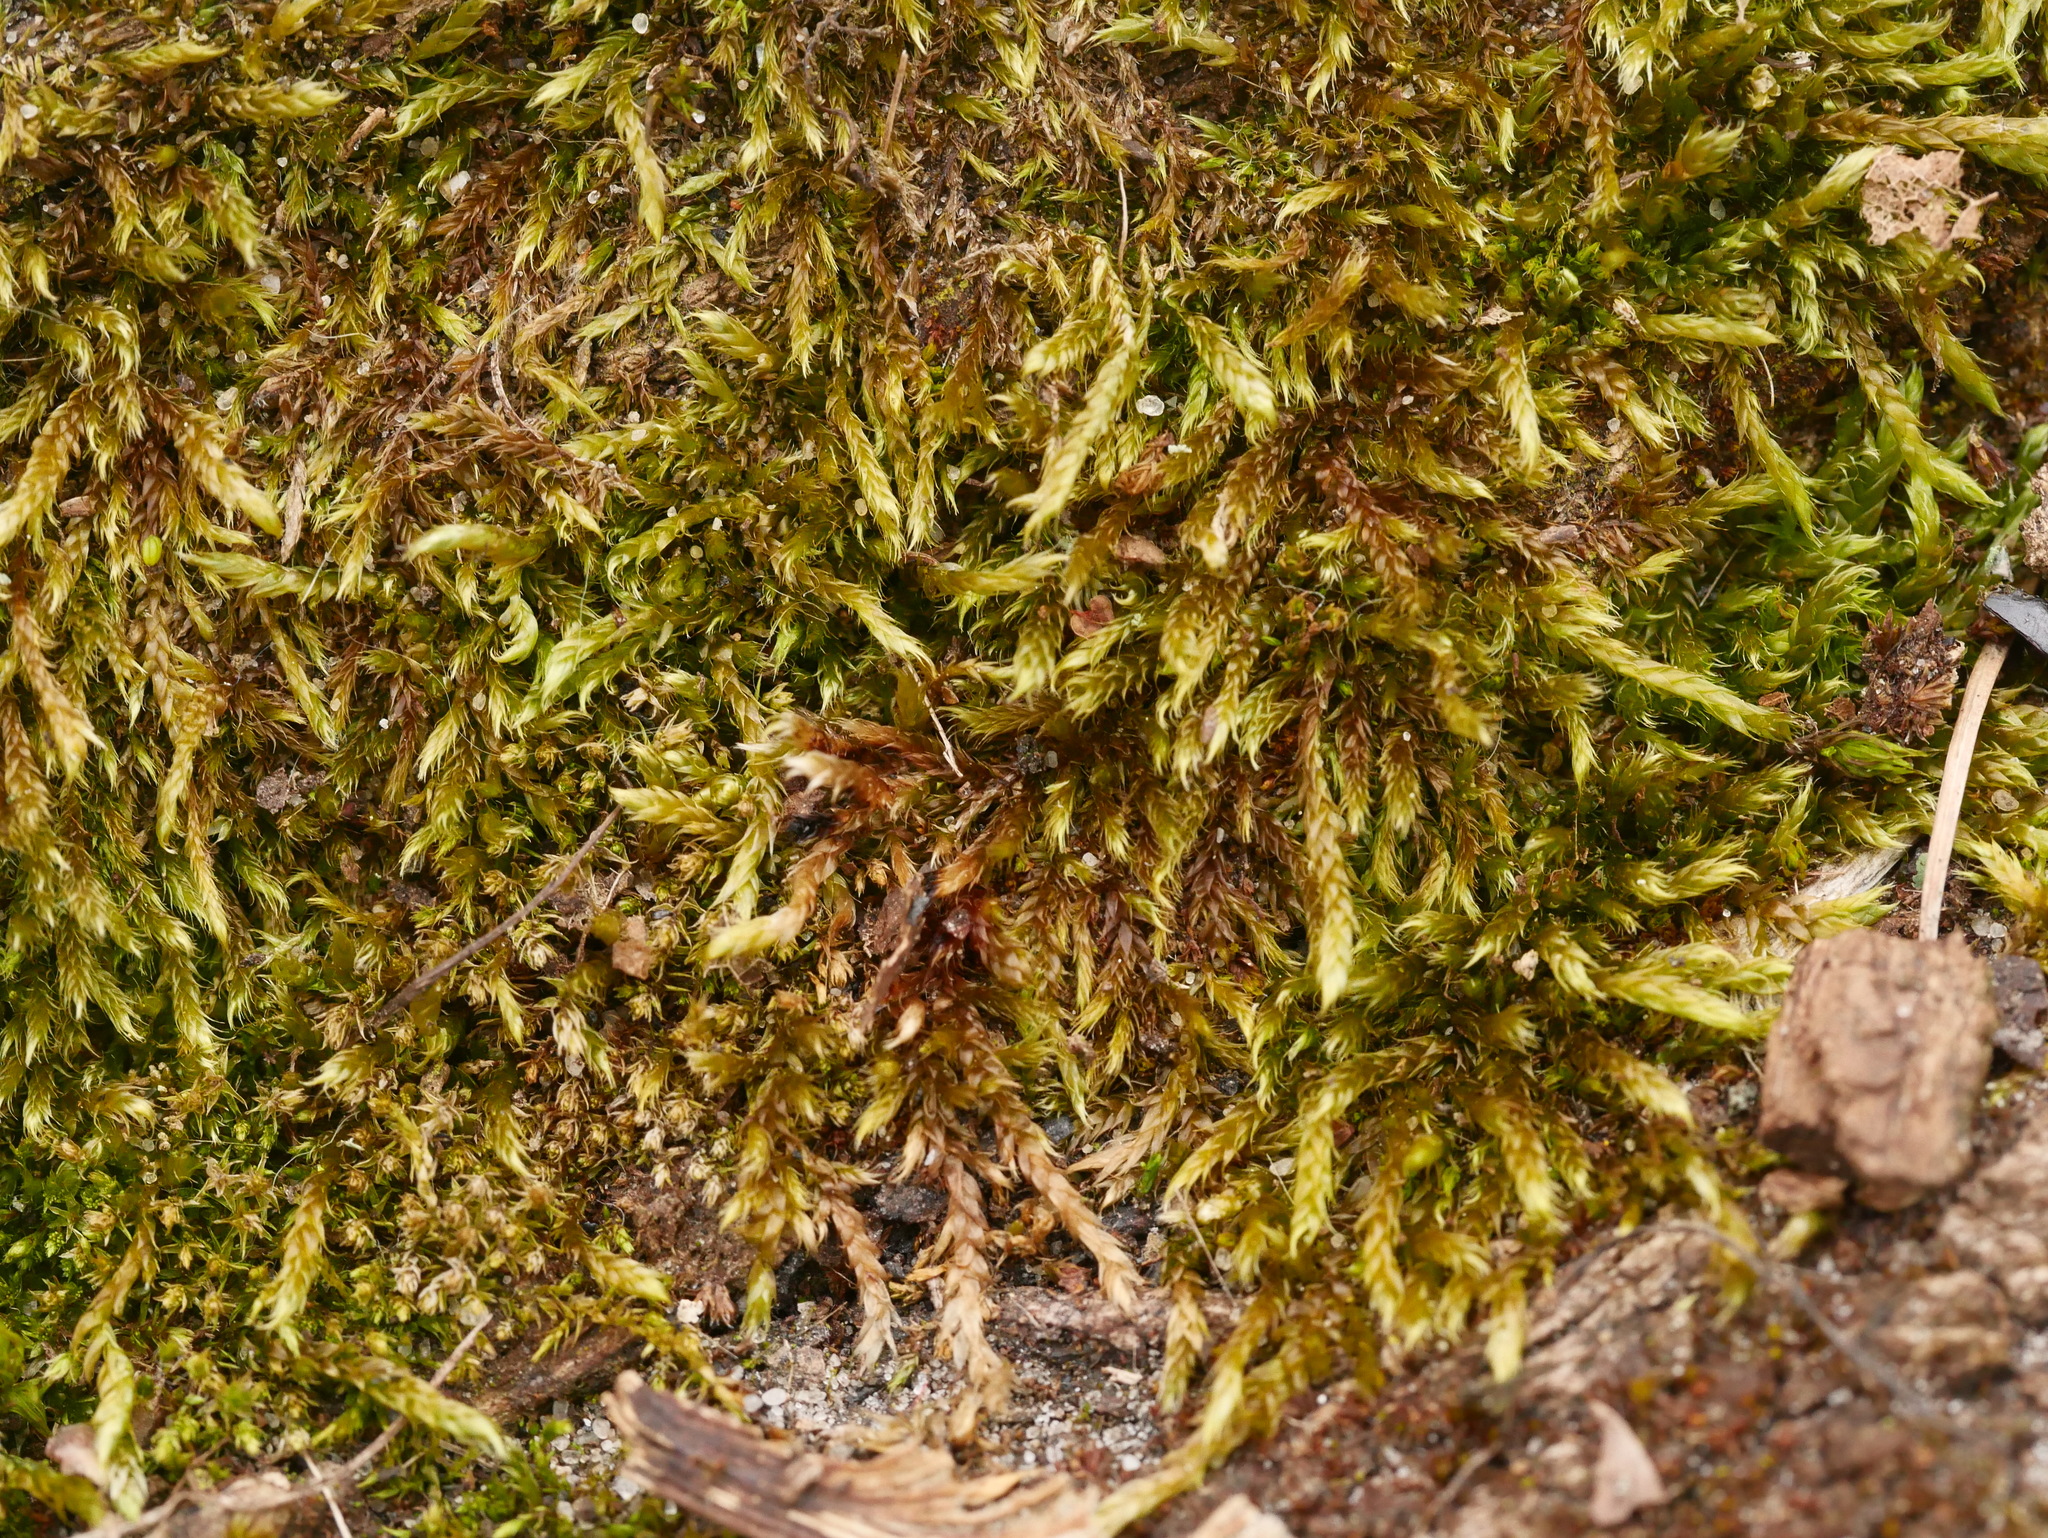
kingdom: Plantae
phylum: Bryophyta
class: Bryopsida
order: Hypnales
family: Hypnaceae
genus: Hypnum
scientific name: Hypnum cupressiforme
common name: Cypress-leaved plait-moss
